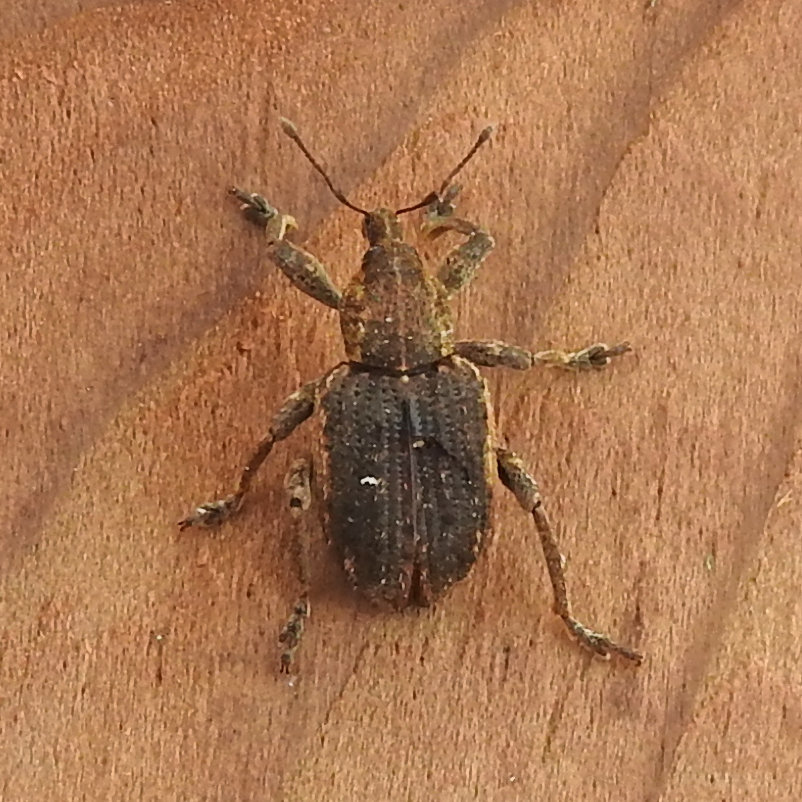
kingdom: Animalia
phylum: Arthropoda
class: Insecta
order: Coleoptera
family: Curculionidae
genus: Brachypera
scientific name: Brachypera zoilus
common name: Clover leaf weevil
